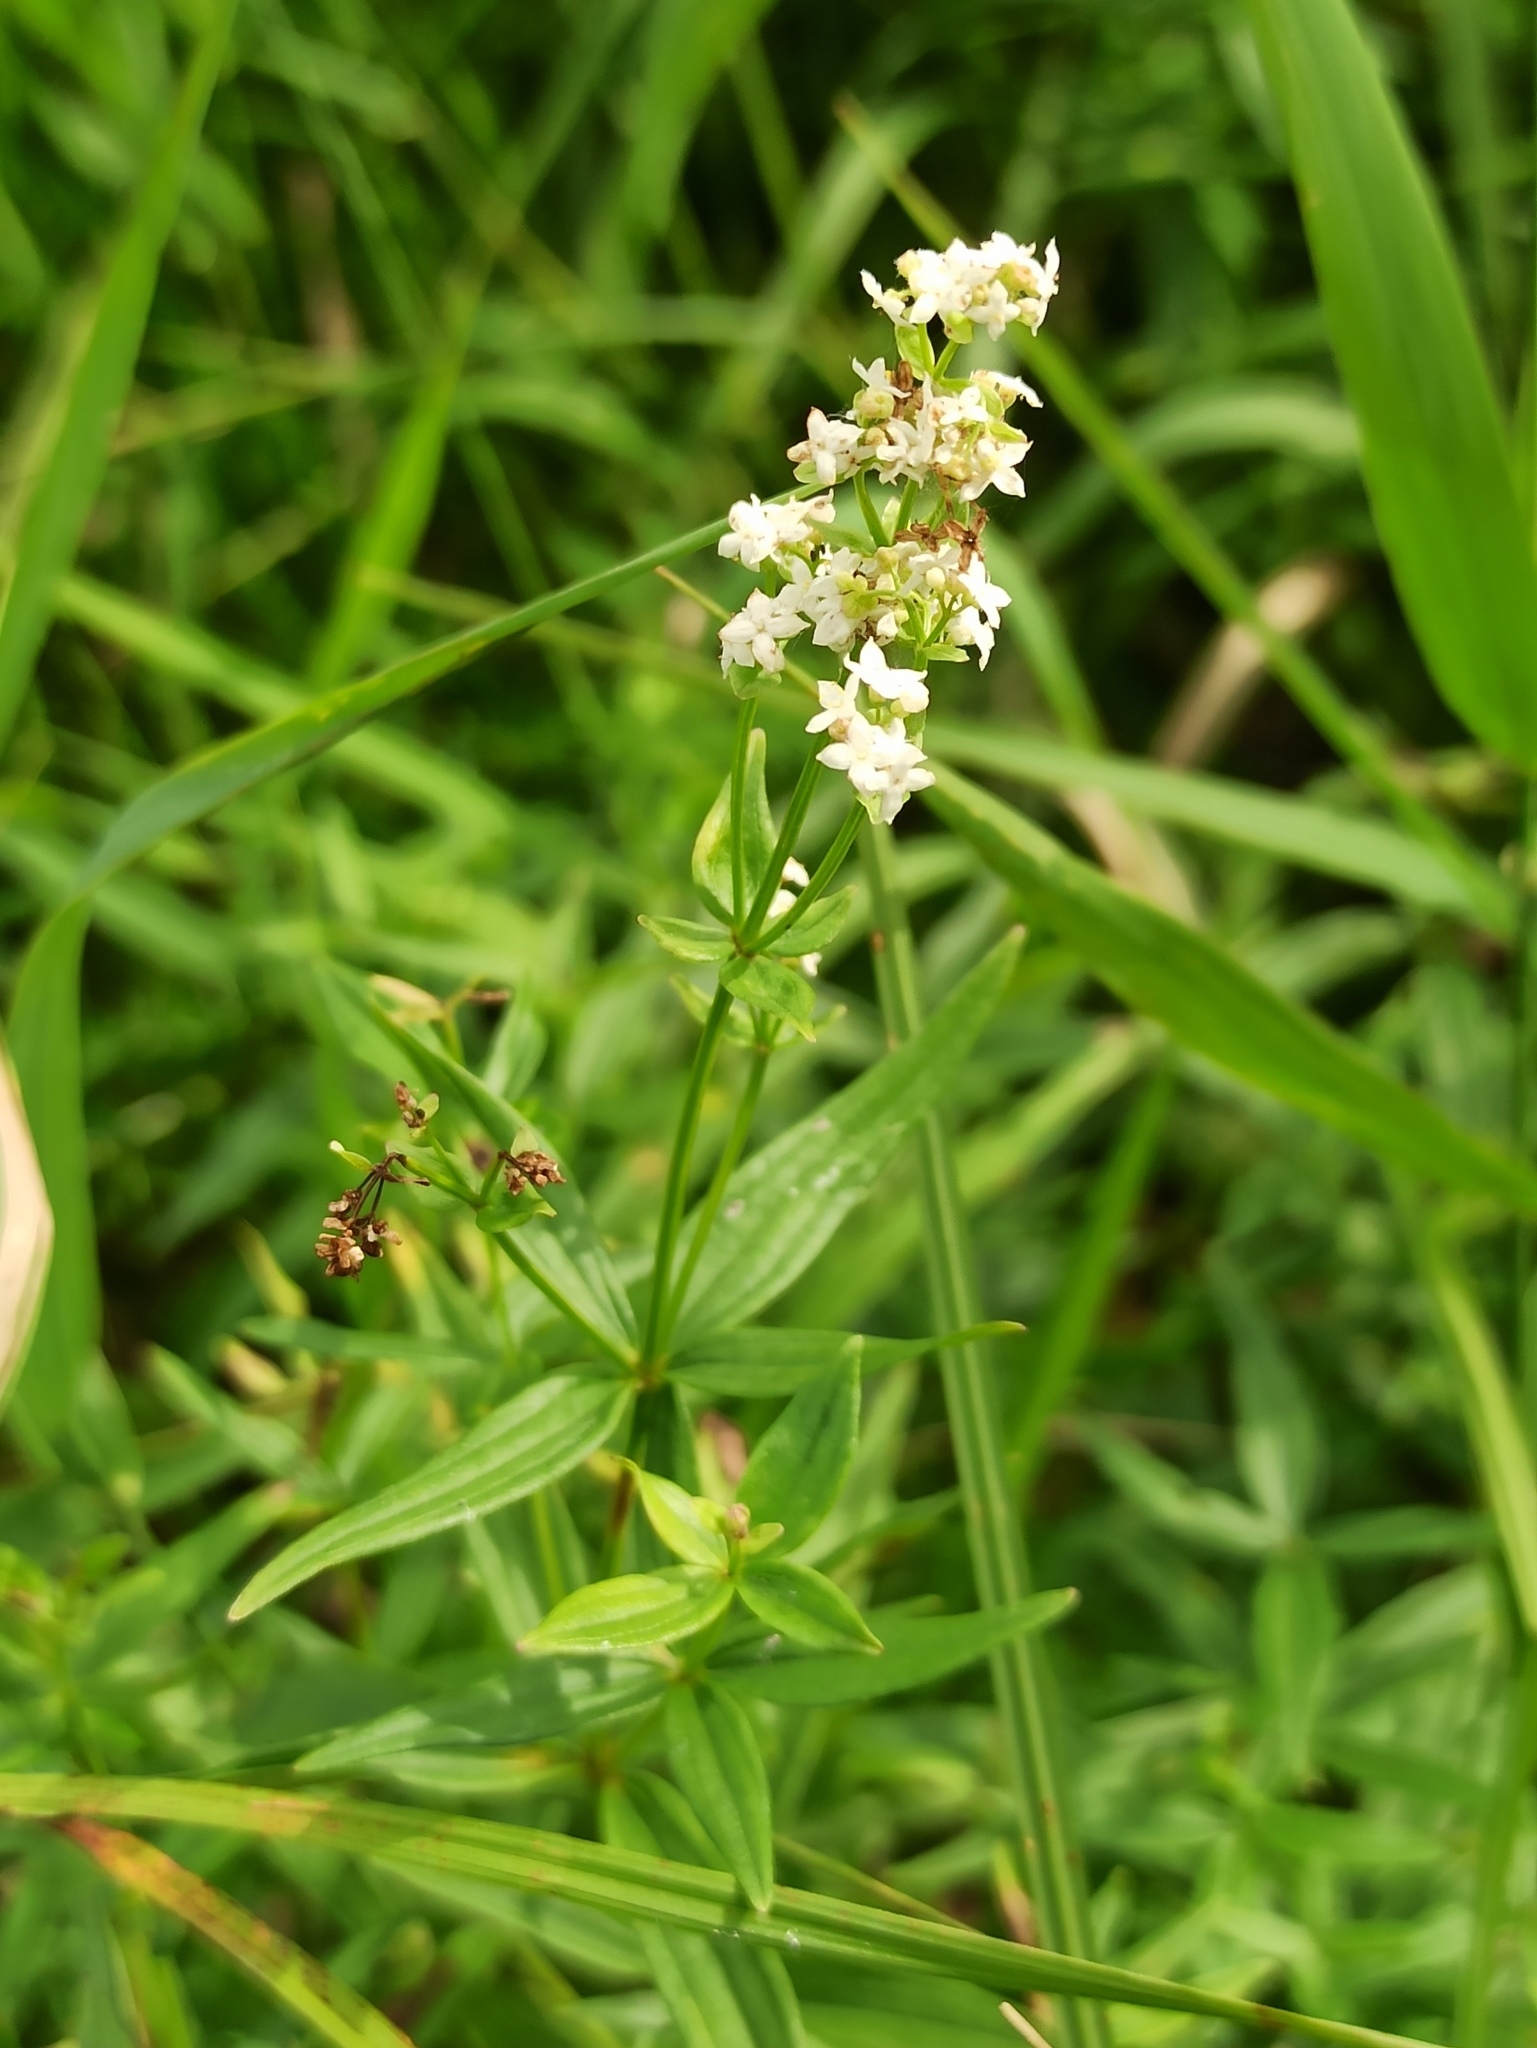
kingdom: Plantae
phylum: Tracheophyta
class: Magnoliopsida
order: Gentianales
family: Rubiaceae
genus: Galium
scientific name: Galium boreale
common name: Northern bedstraw
